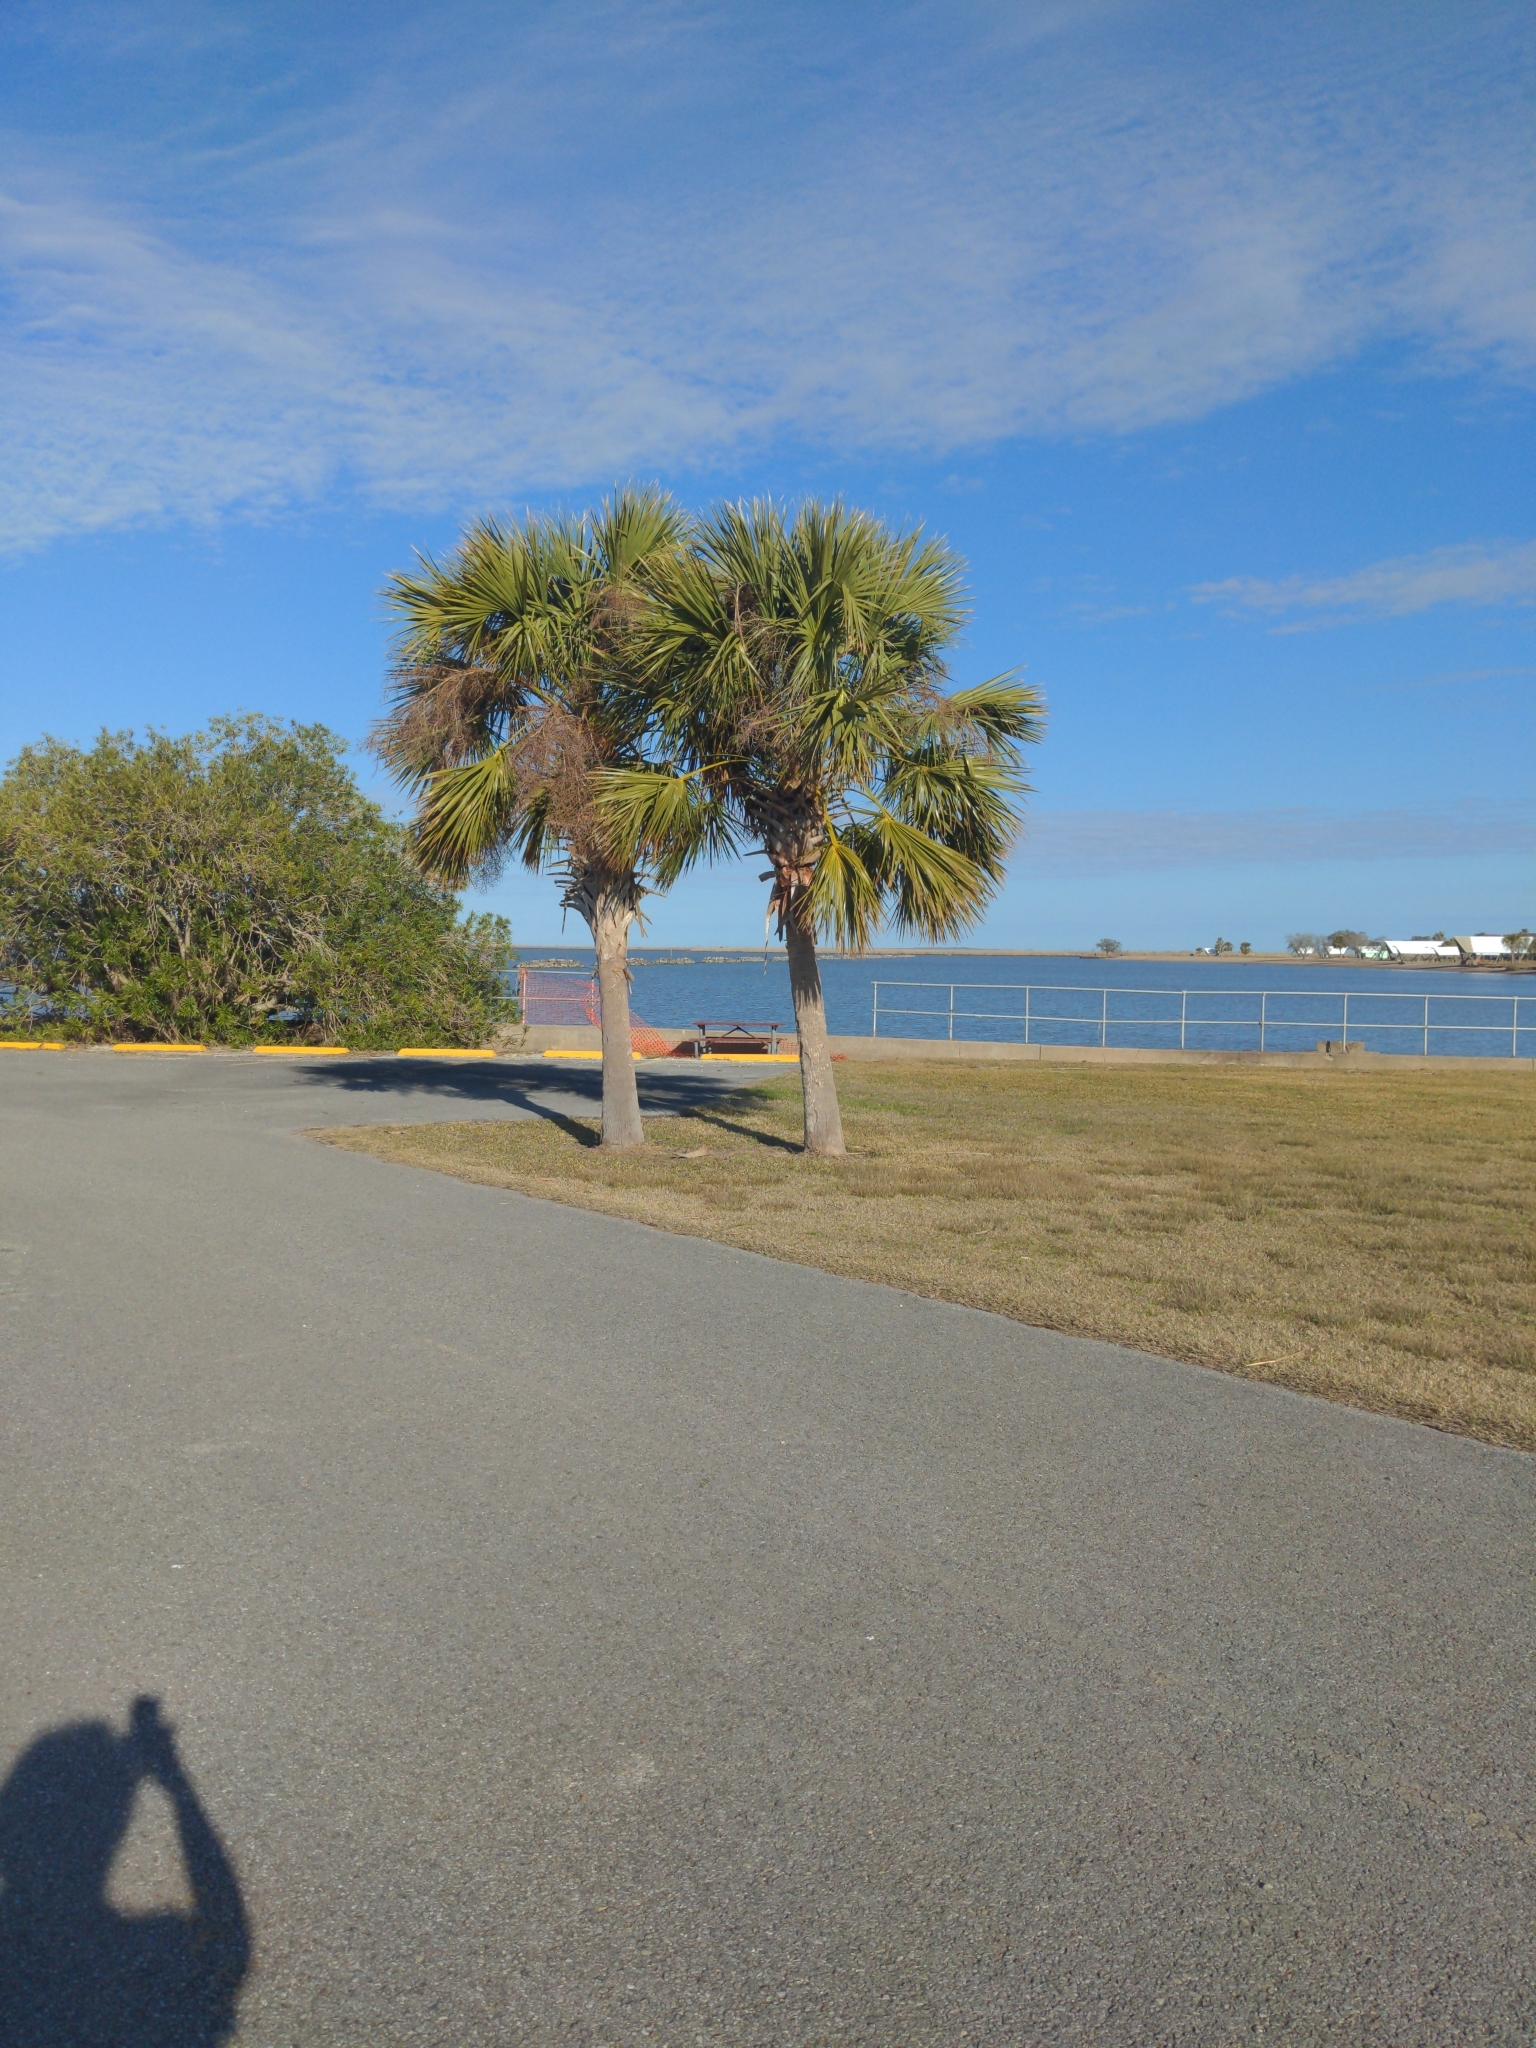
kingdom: Plantae
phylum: Tracheophyta
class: Liliopsida
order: Arecales
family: Arecaceae
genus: Sabal
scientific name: Sabal palmetto
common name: Blue palmetto
